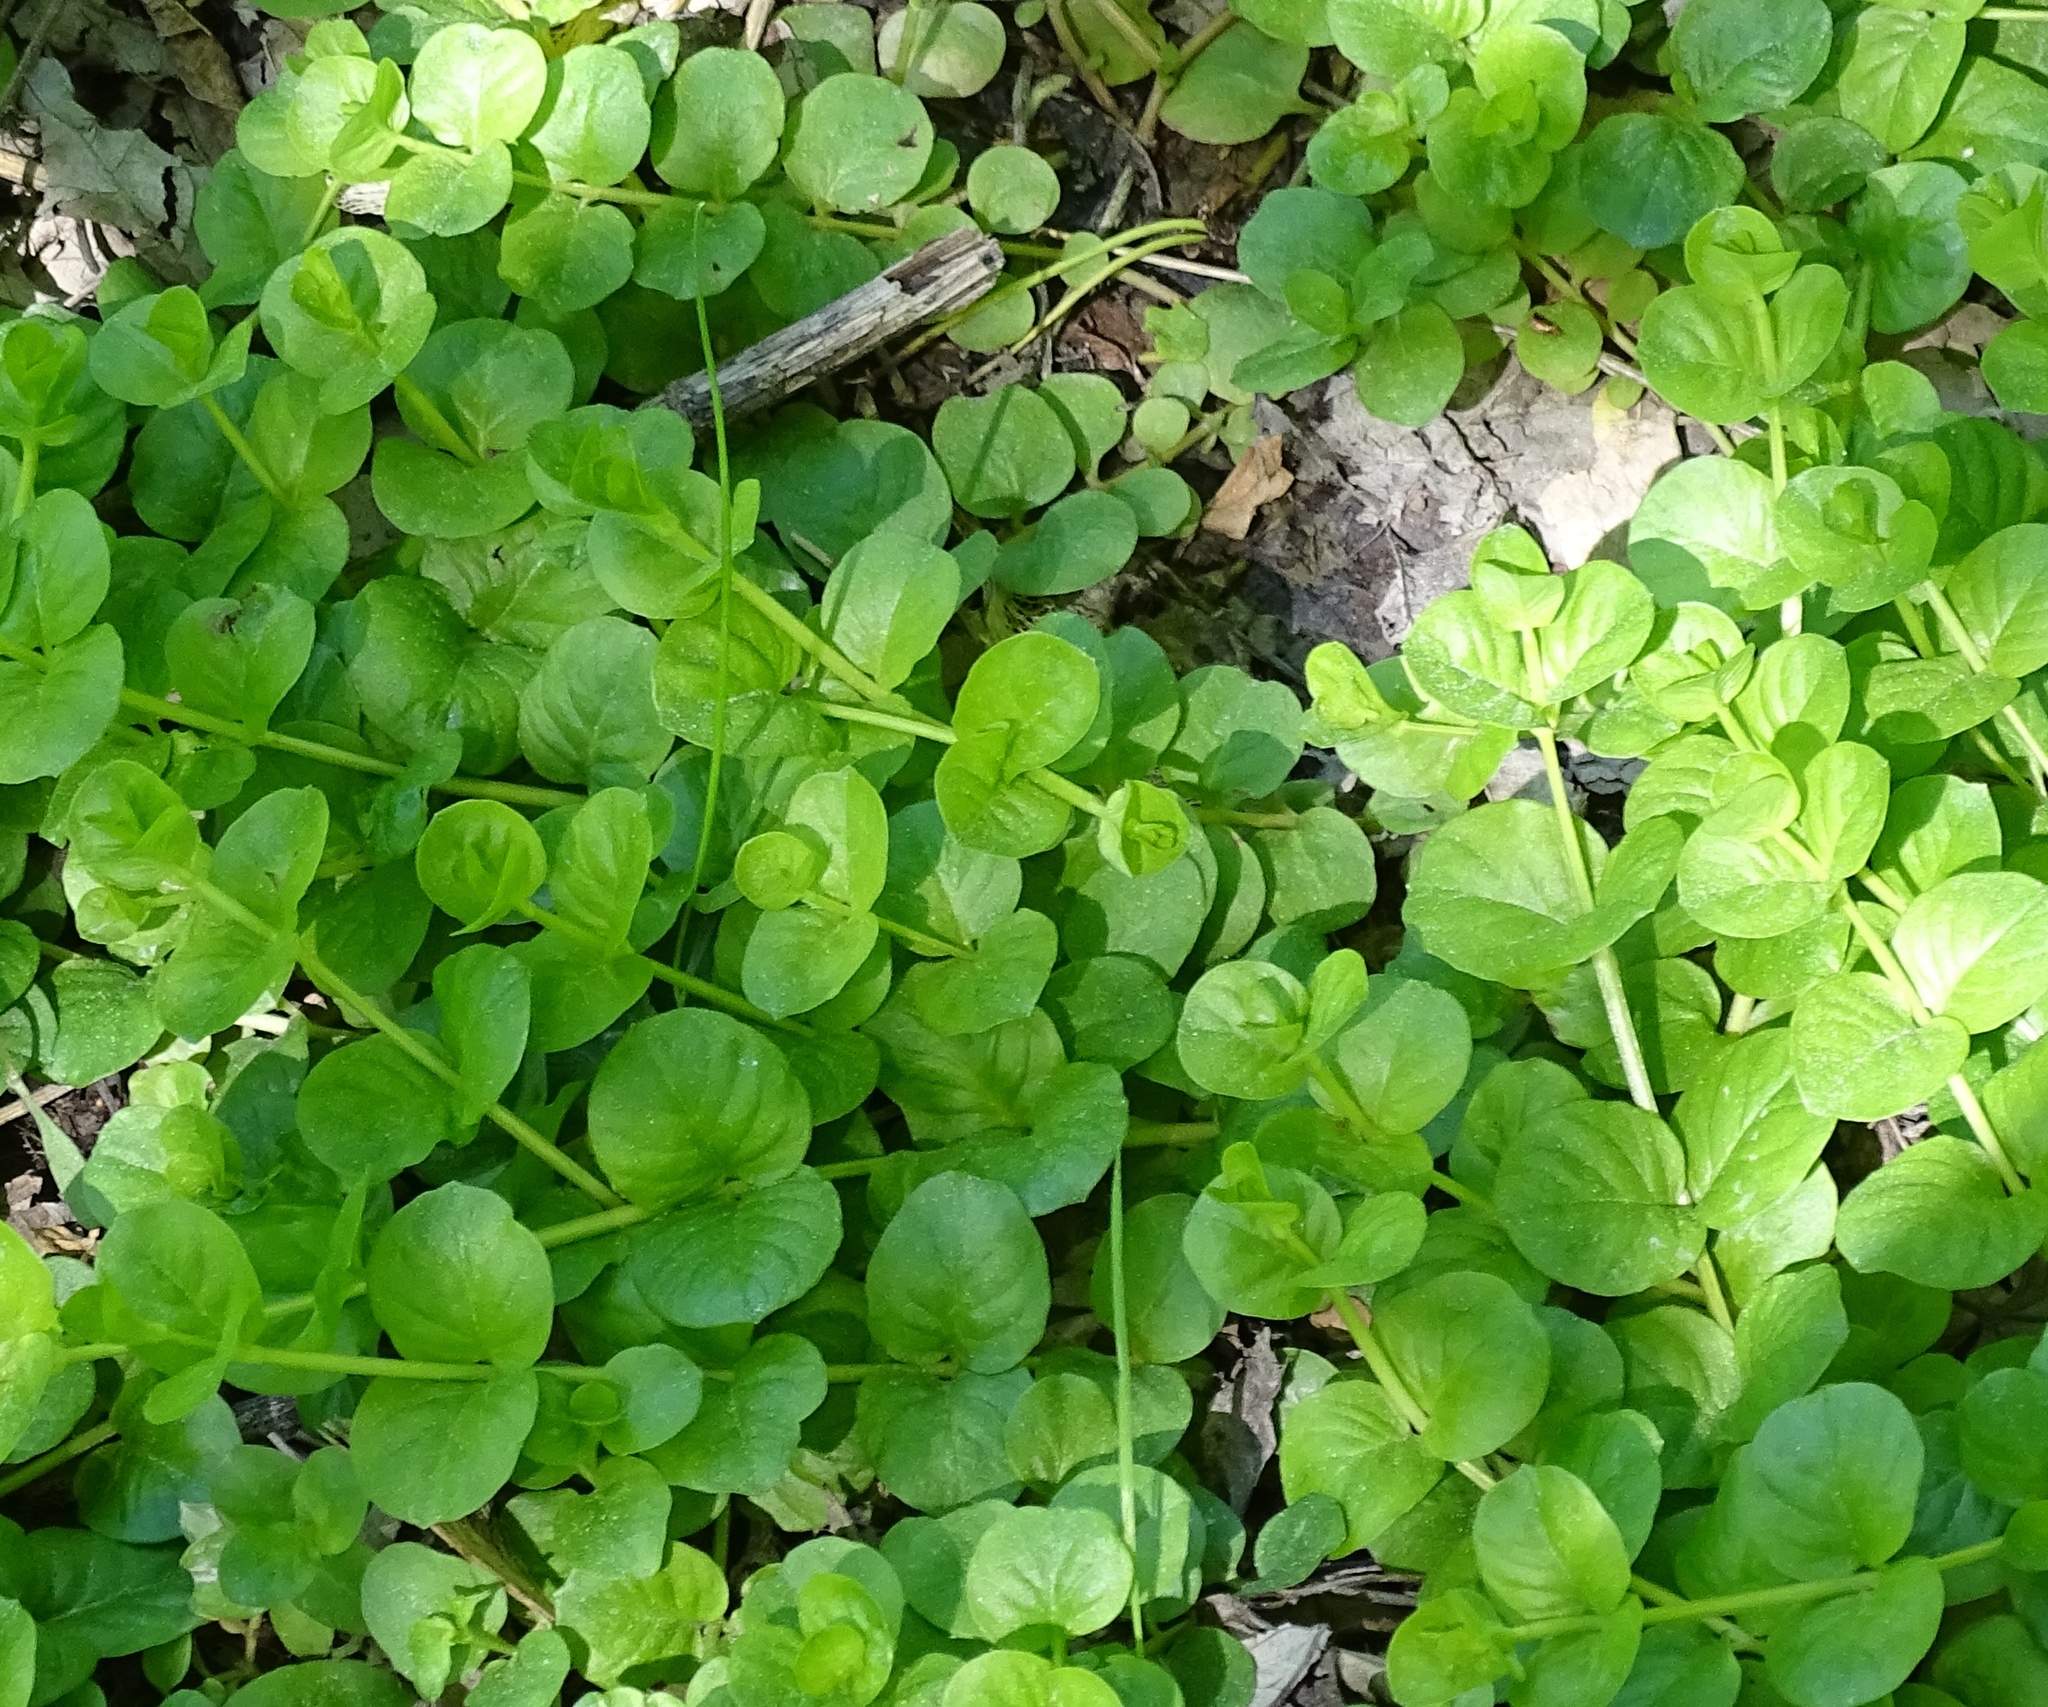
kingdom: Plantae
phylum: Tracheophyta
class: Magnoliopsida
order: Ericales
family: Primulaceae
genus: Lysimachia
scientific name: Lysimachia nummularia
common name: Moneywort
